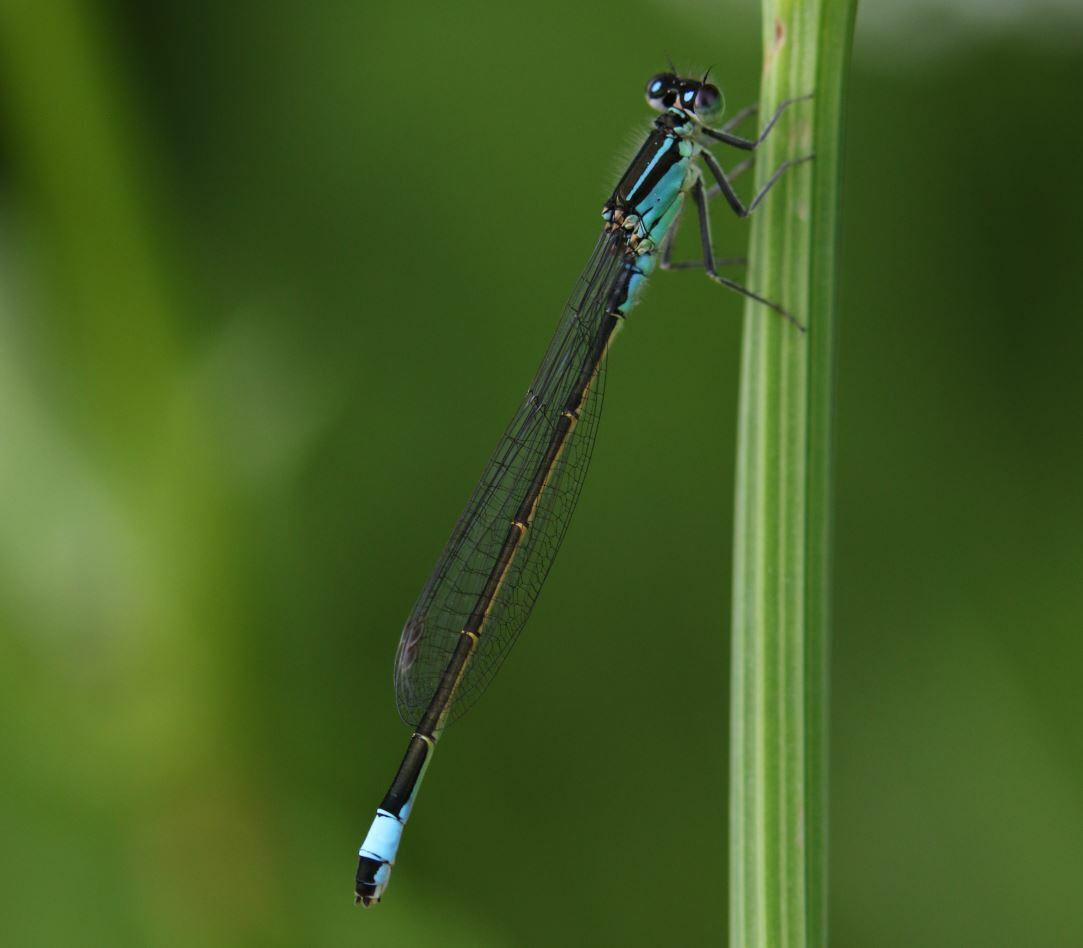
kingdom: Animalia
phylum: Arthropoda
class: Insecta
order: Odonata
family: Coenagrionidae
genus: Ischnura
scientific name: Ischnura elegans
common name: Blue-tailed damselfly
